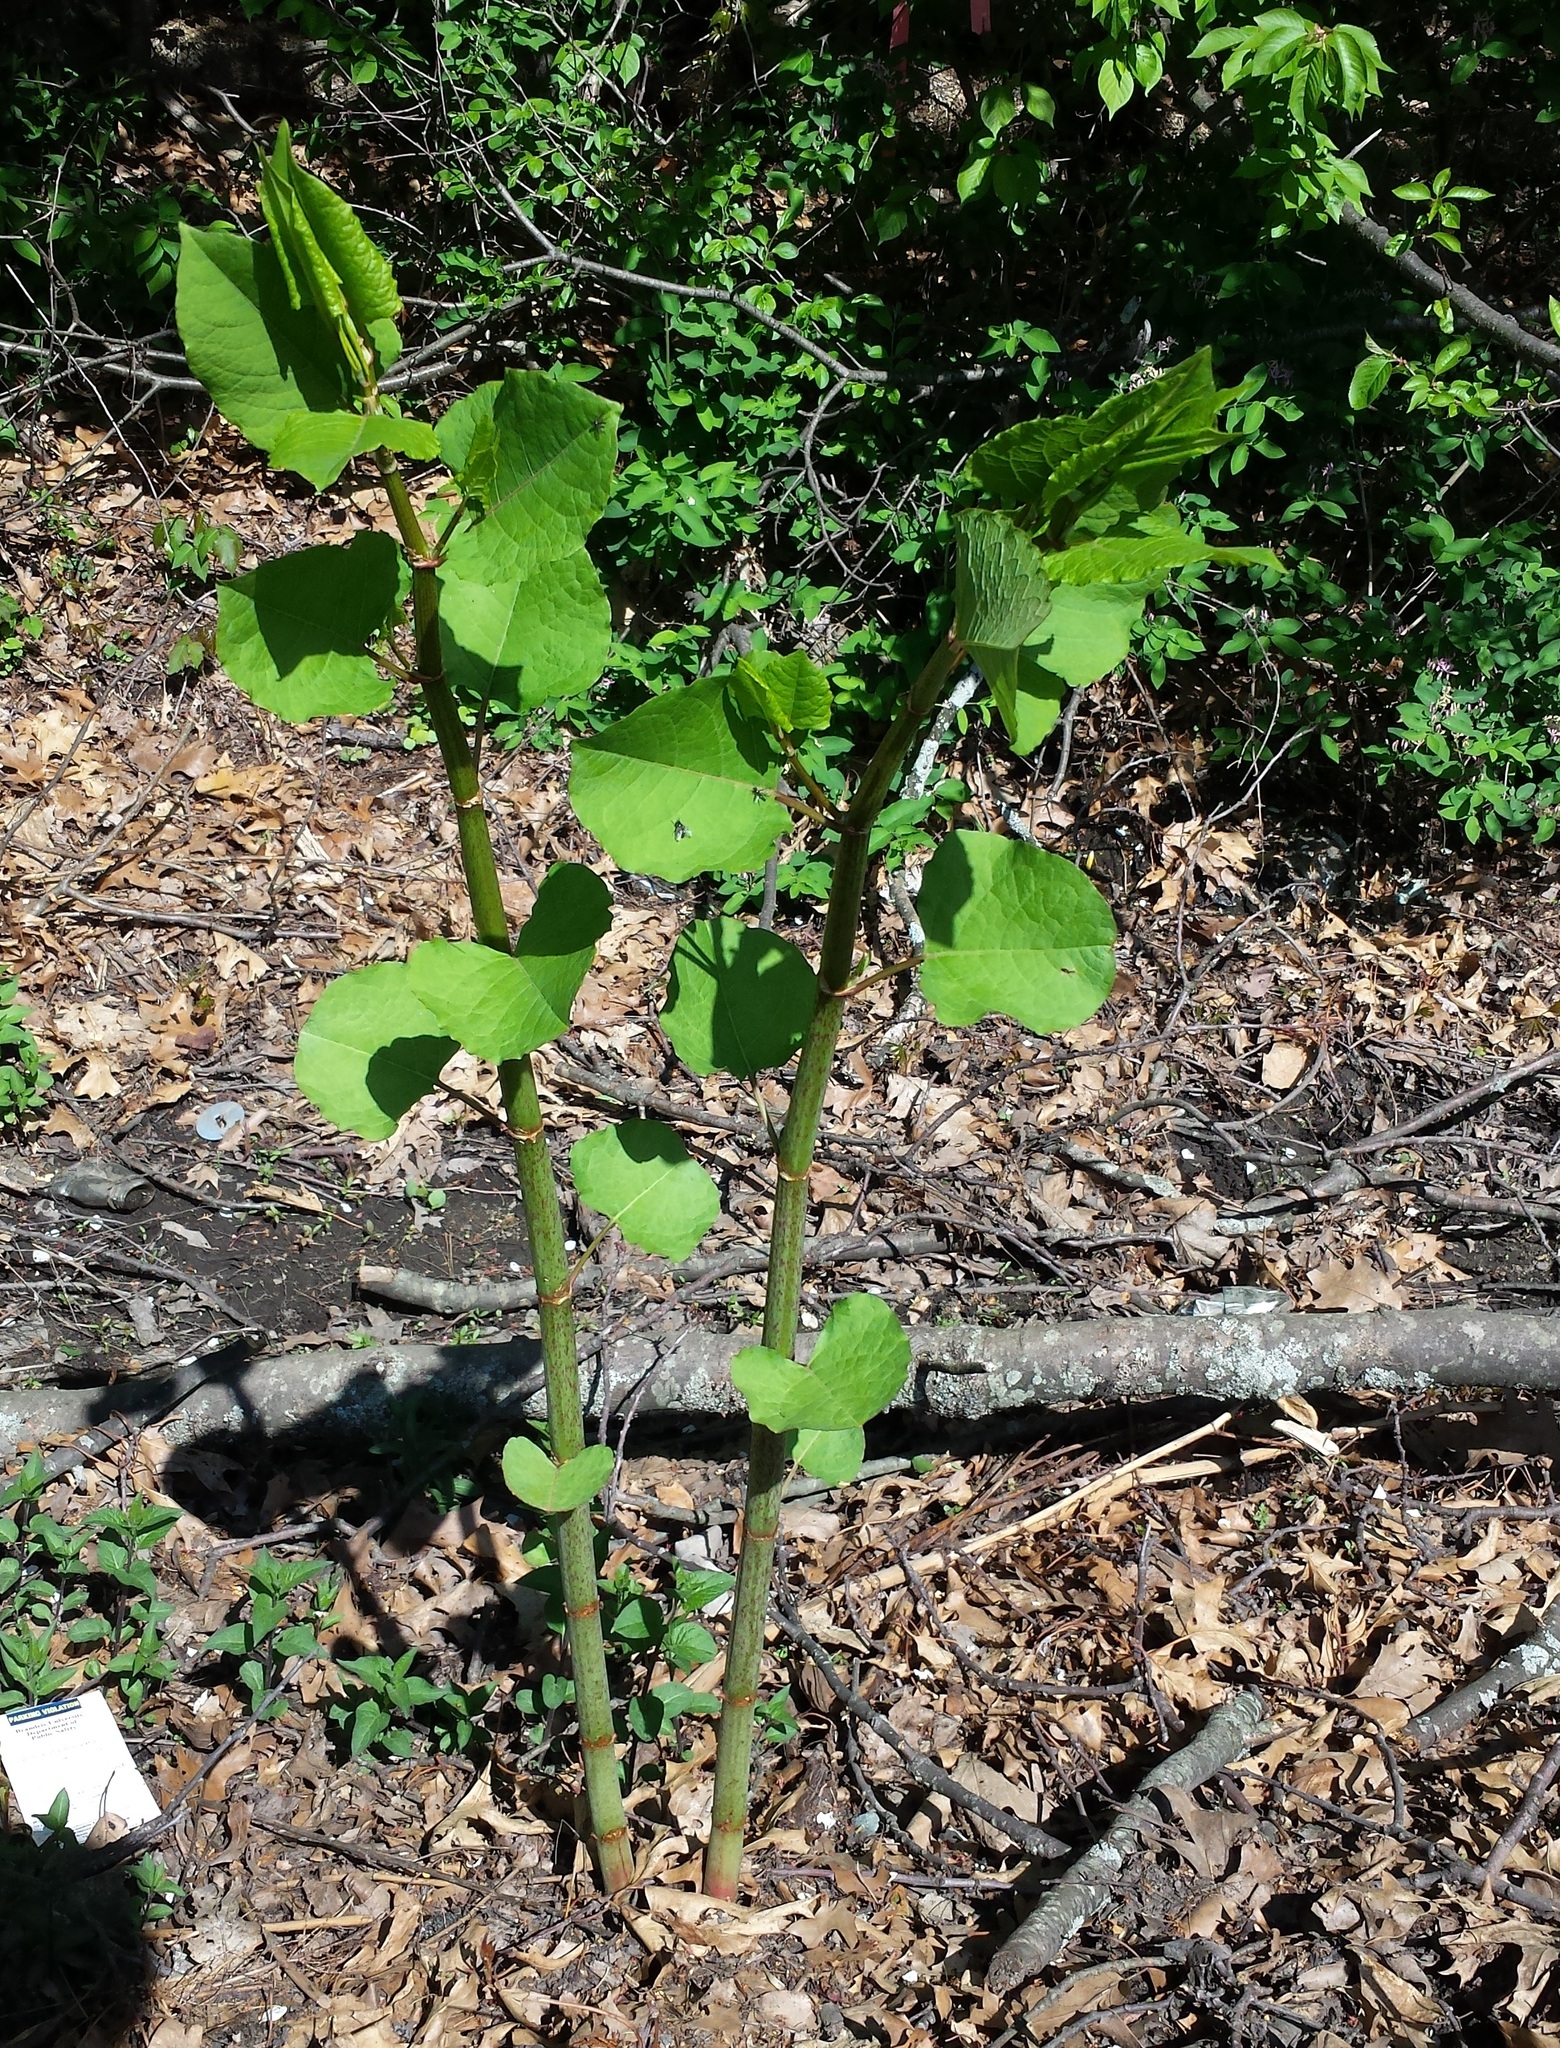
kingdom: Plantae
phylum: Tracheophyta
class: Magnoliopsida
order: Caryophyllales
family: Polygonaceae
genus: Reynoutria
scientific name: Reynoutria japonica
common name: Japanese knotweed
